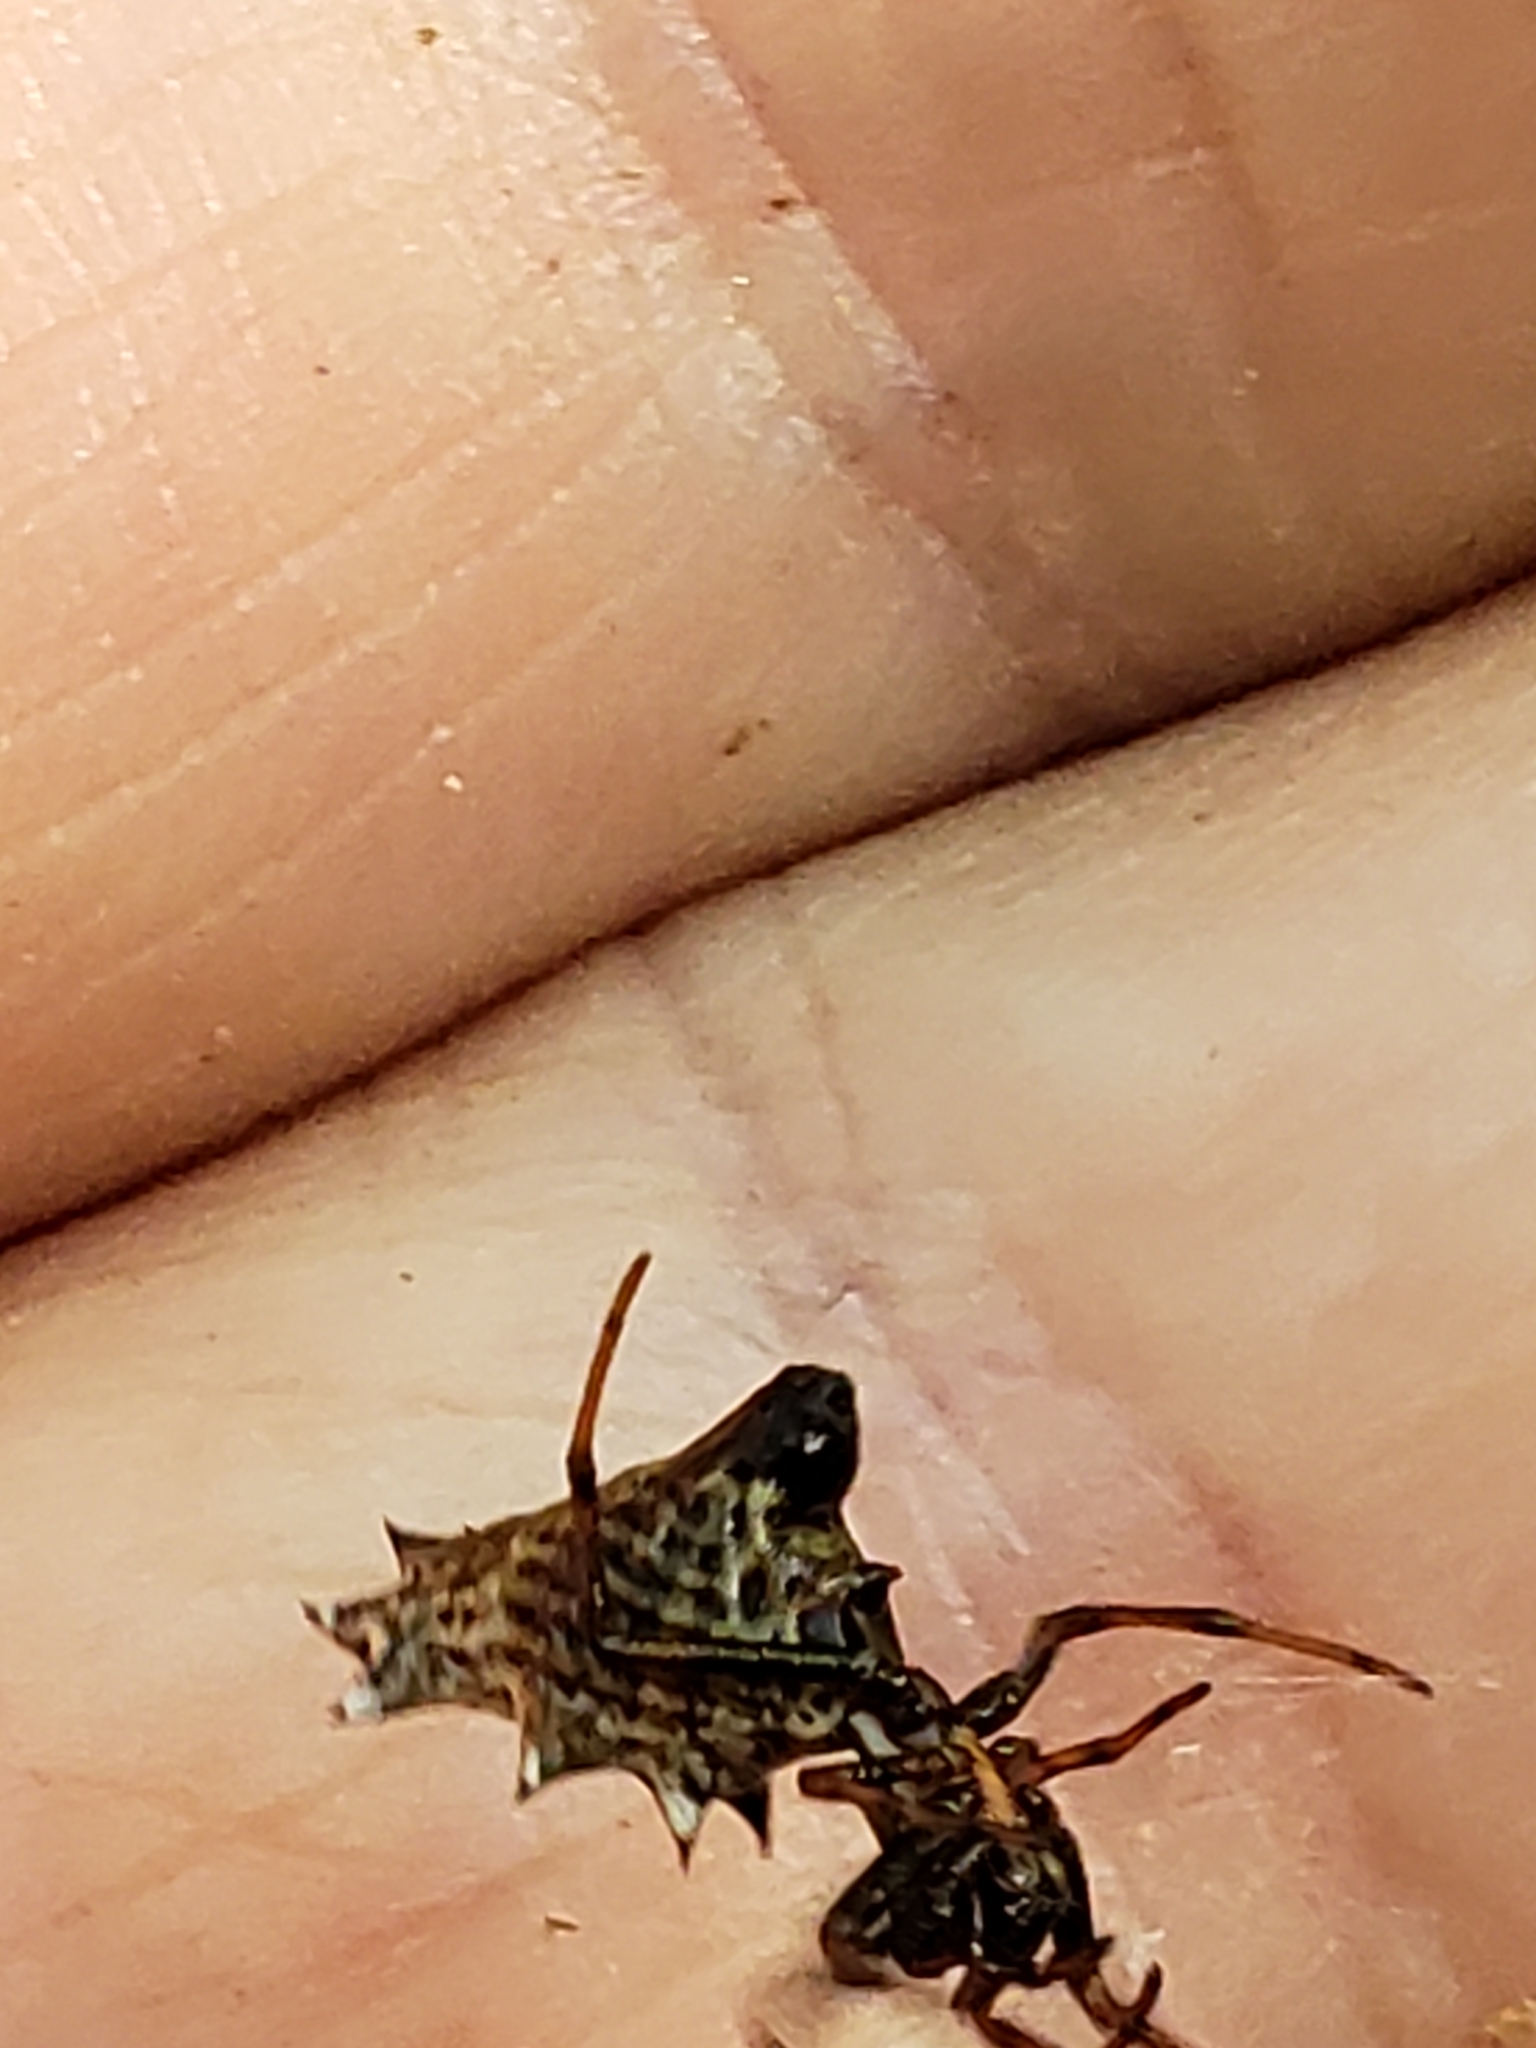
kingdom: Animalia
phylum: Arthropoda
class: Arachnida
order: Araneae
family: Araneidae
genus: Micrathena
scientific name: Micrathena gracilis
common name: Orb weavers
